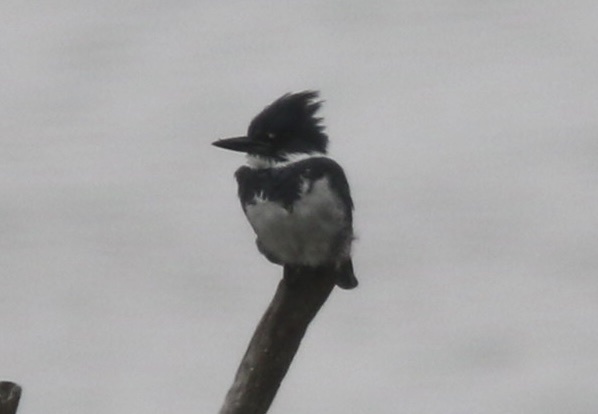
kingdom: Animalia
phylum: Chordata
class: Aves
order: Coraciiformes
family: Alcedinidae
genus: Megaceryle
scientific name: Megaceryle alcyon
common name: Belted kingfisher
